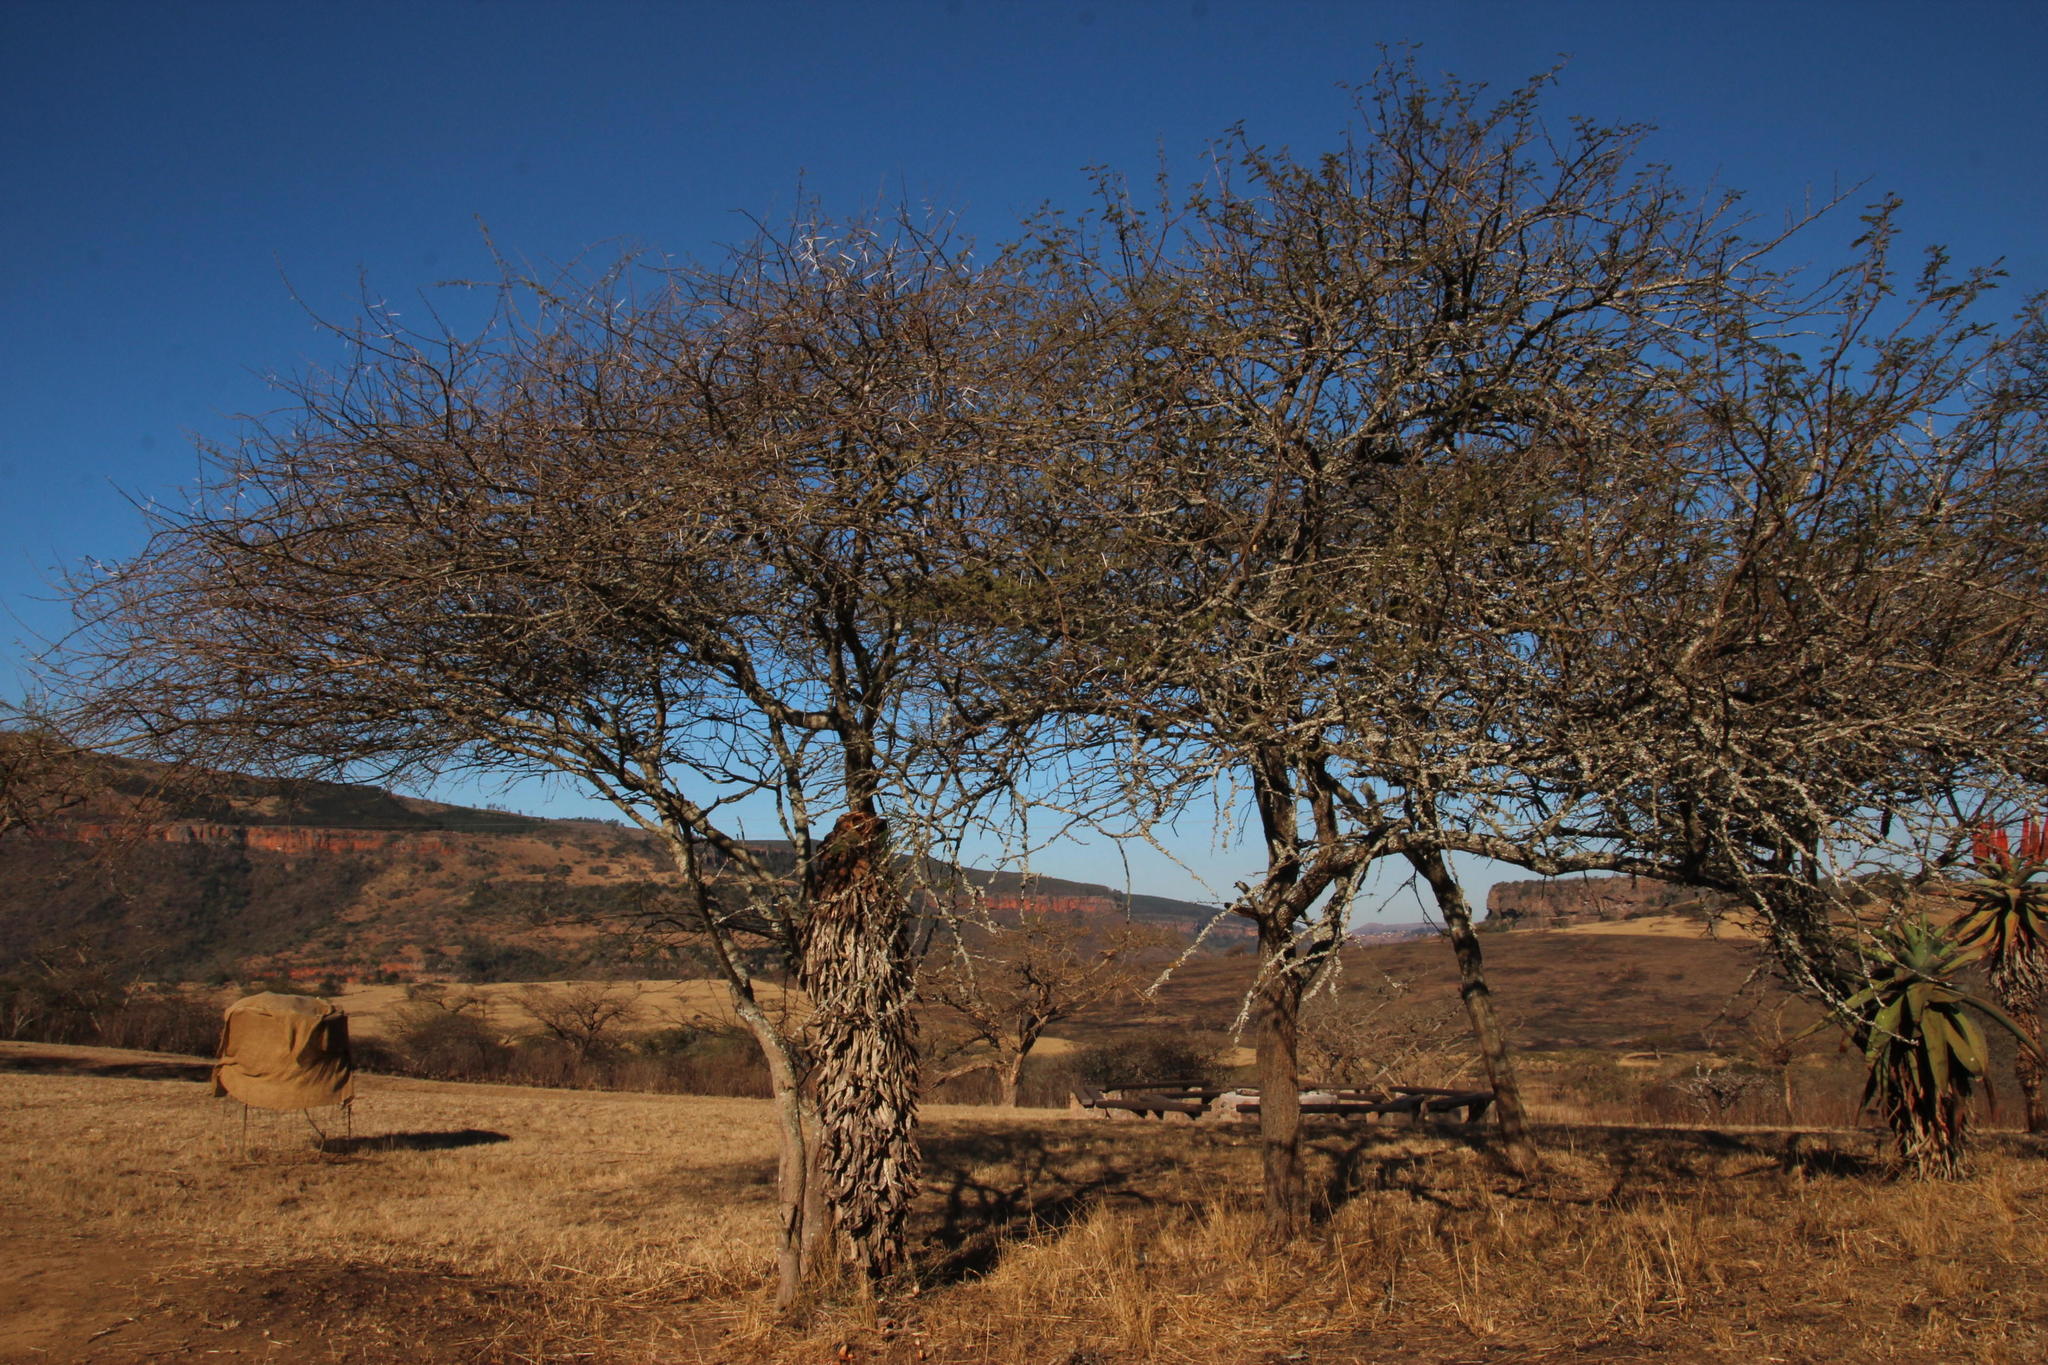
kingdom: Plantae
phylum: Tracheophyta
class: Magnoliopsida
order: Fabales
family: Fabaceae
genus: Vachellia
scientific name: Vachellia tortilis
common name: Umbrella thorn acacia
